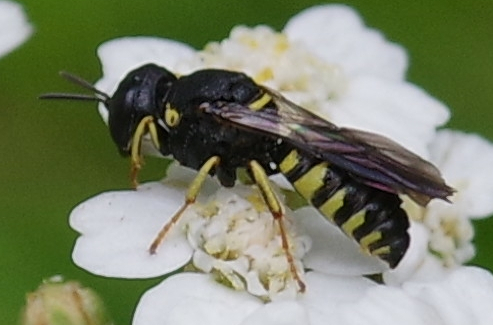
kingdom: Animalia
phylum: Arthropoda
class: Insecta
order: Hymenoptera
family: Crabronidae
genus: Anacrabro
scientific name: Anacrabro ocellatus
